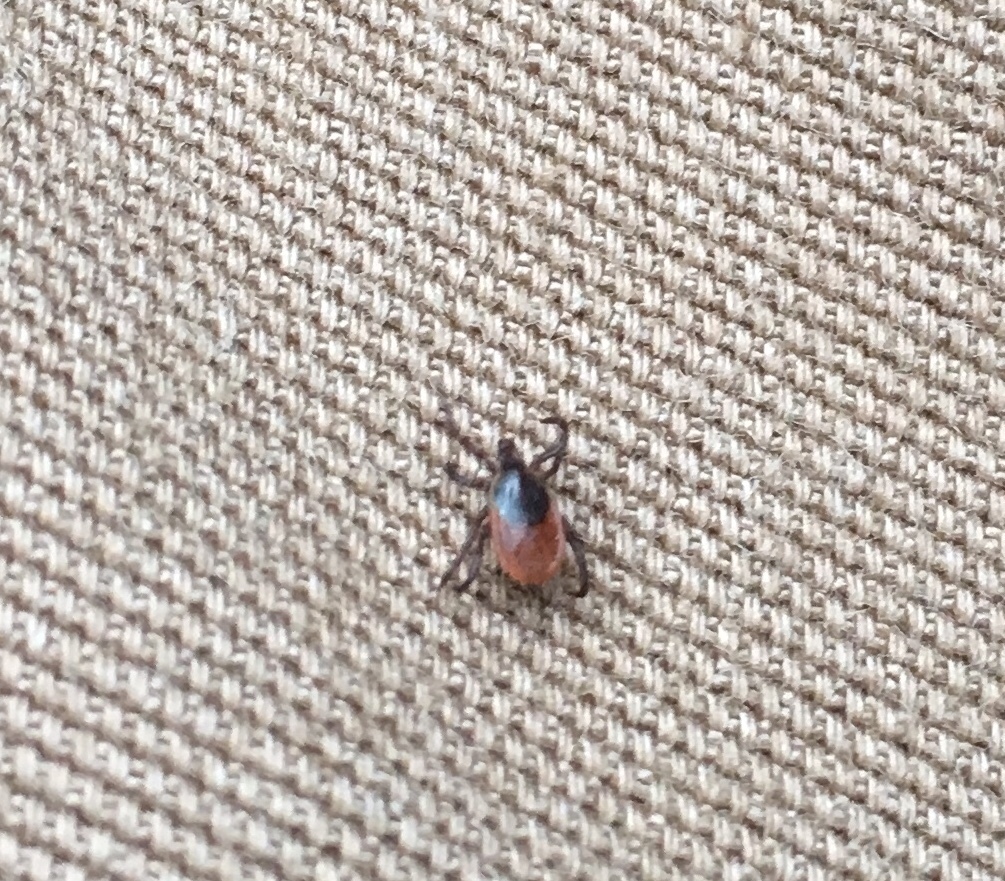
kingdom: Animalia
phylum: Arthropoda
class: Arachnida
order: Ixodida
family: Ixodidae
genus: Ixodes
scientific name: Ixodes scapularis
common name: Black legged tick
